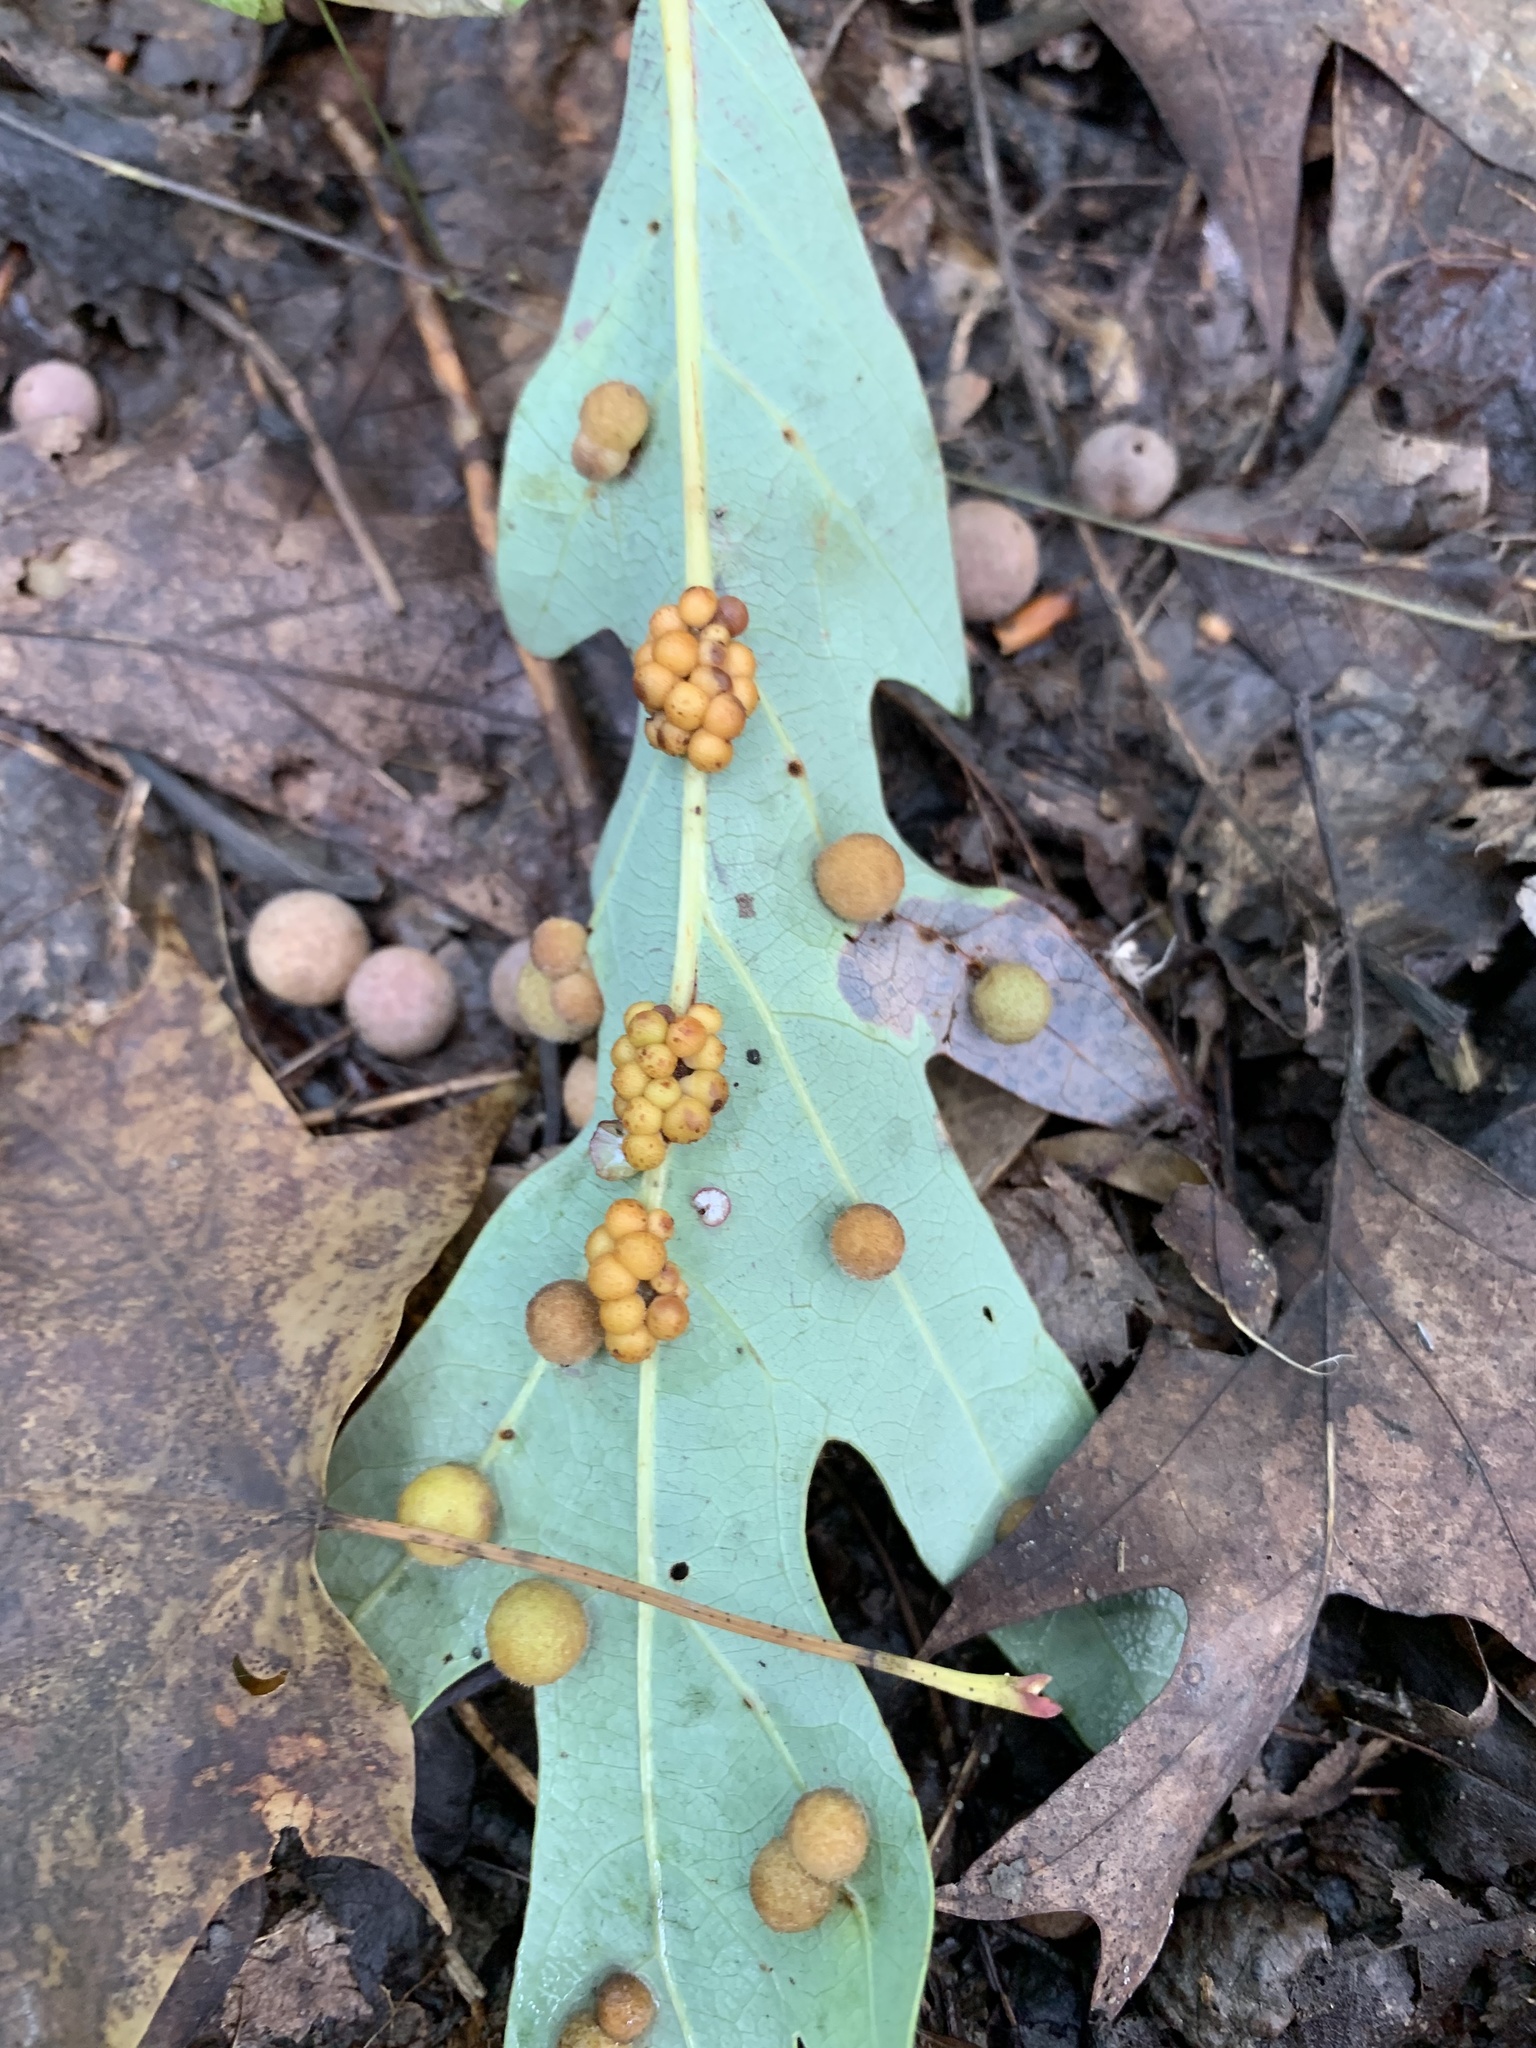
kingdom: Animalia
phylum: Arthropoda
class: Insecta
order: Hymenoptera
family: Cynipidae
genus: Philonix
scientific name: Philonix fulvicollis
